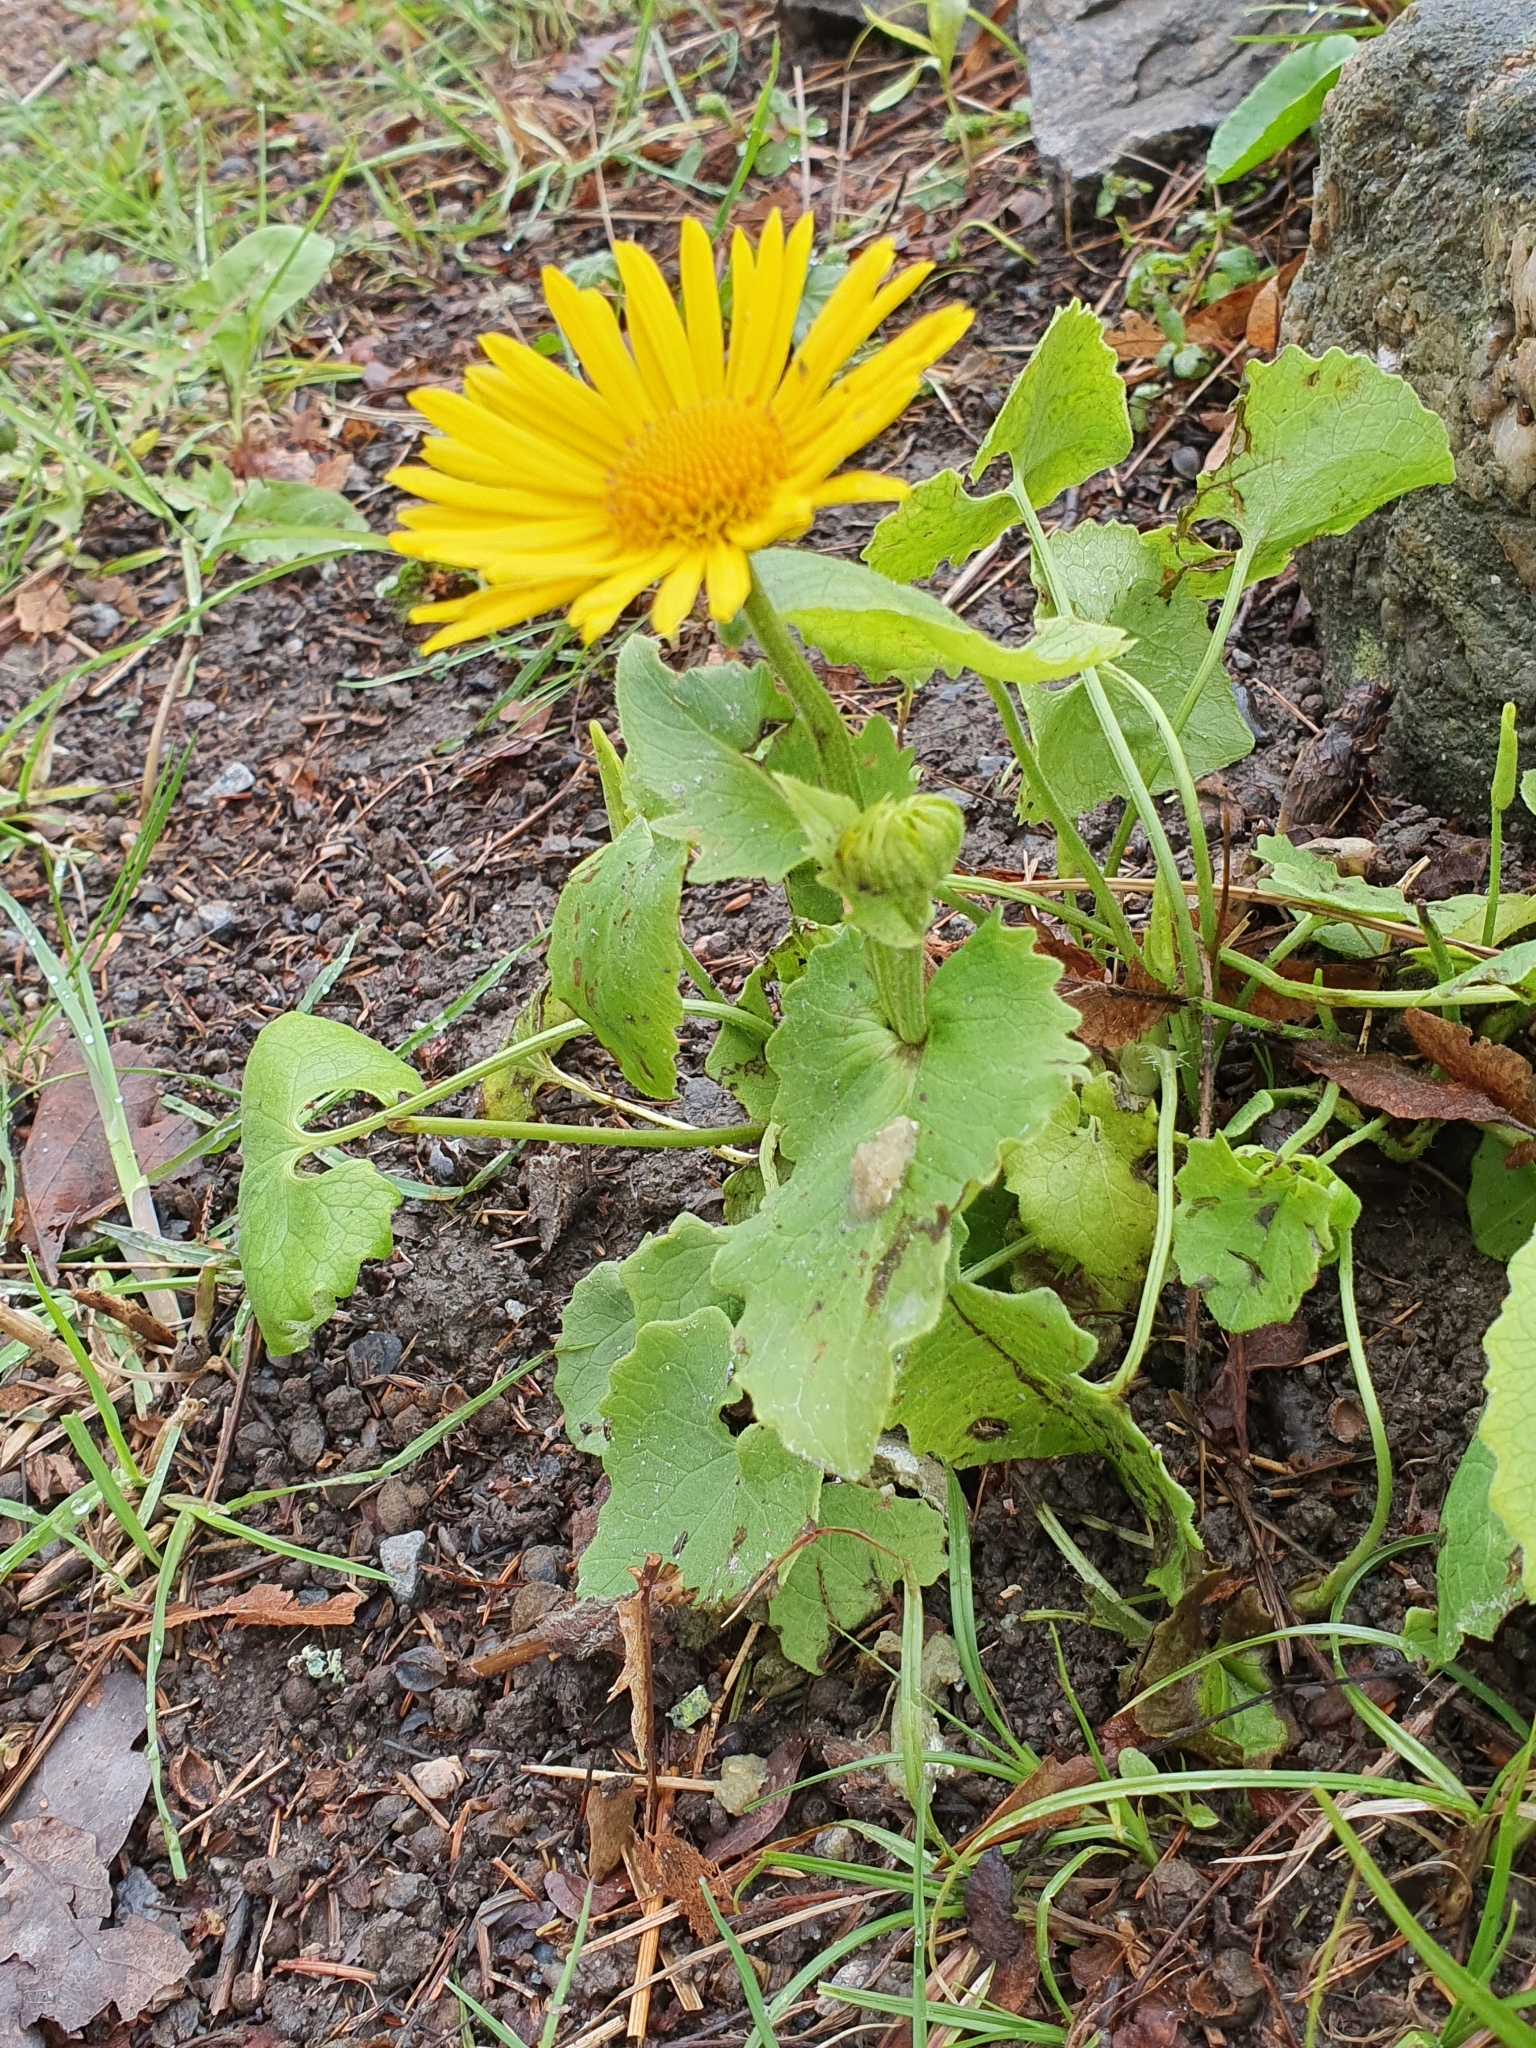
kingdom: Plantae
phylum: Tracheophyta
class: Magnoliopsida
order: Asterales
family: Asteraceae
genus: Doronicum
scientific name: Doronicum
